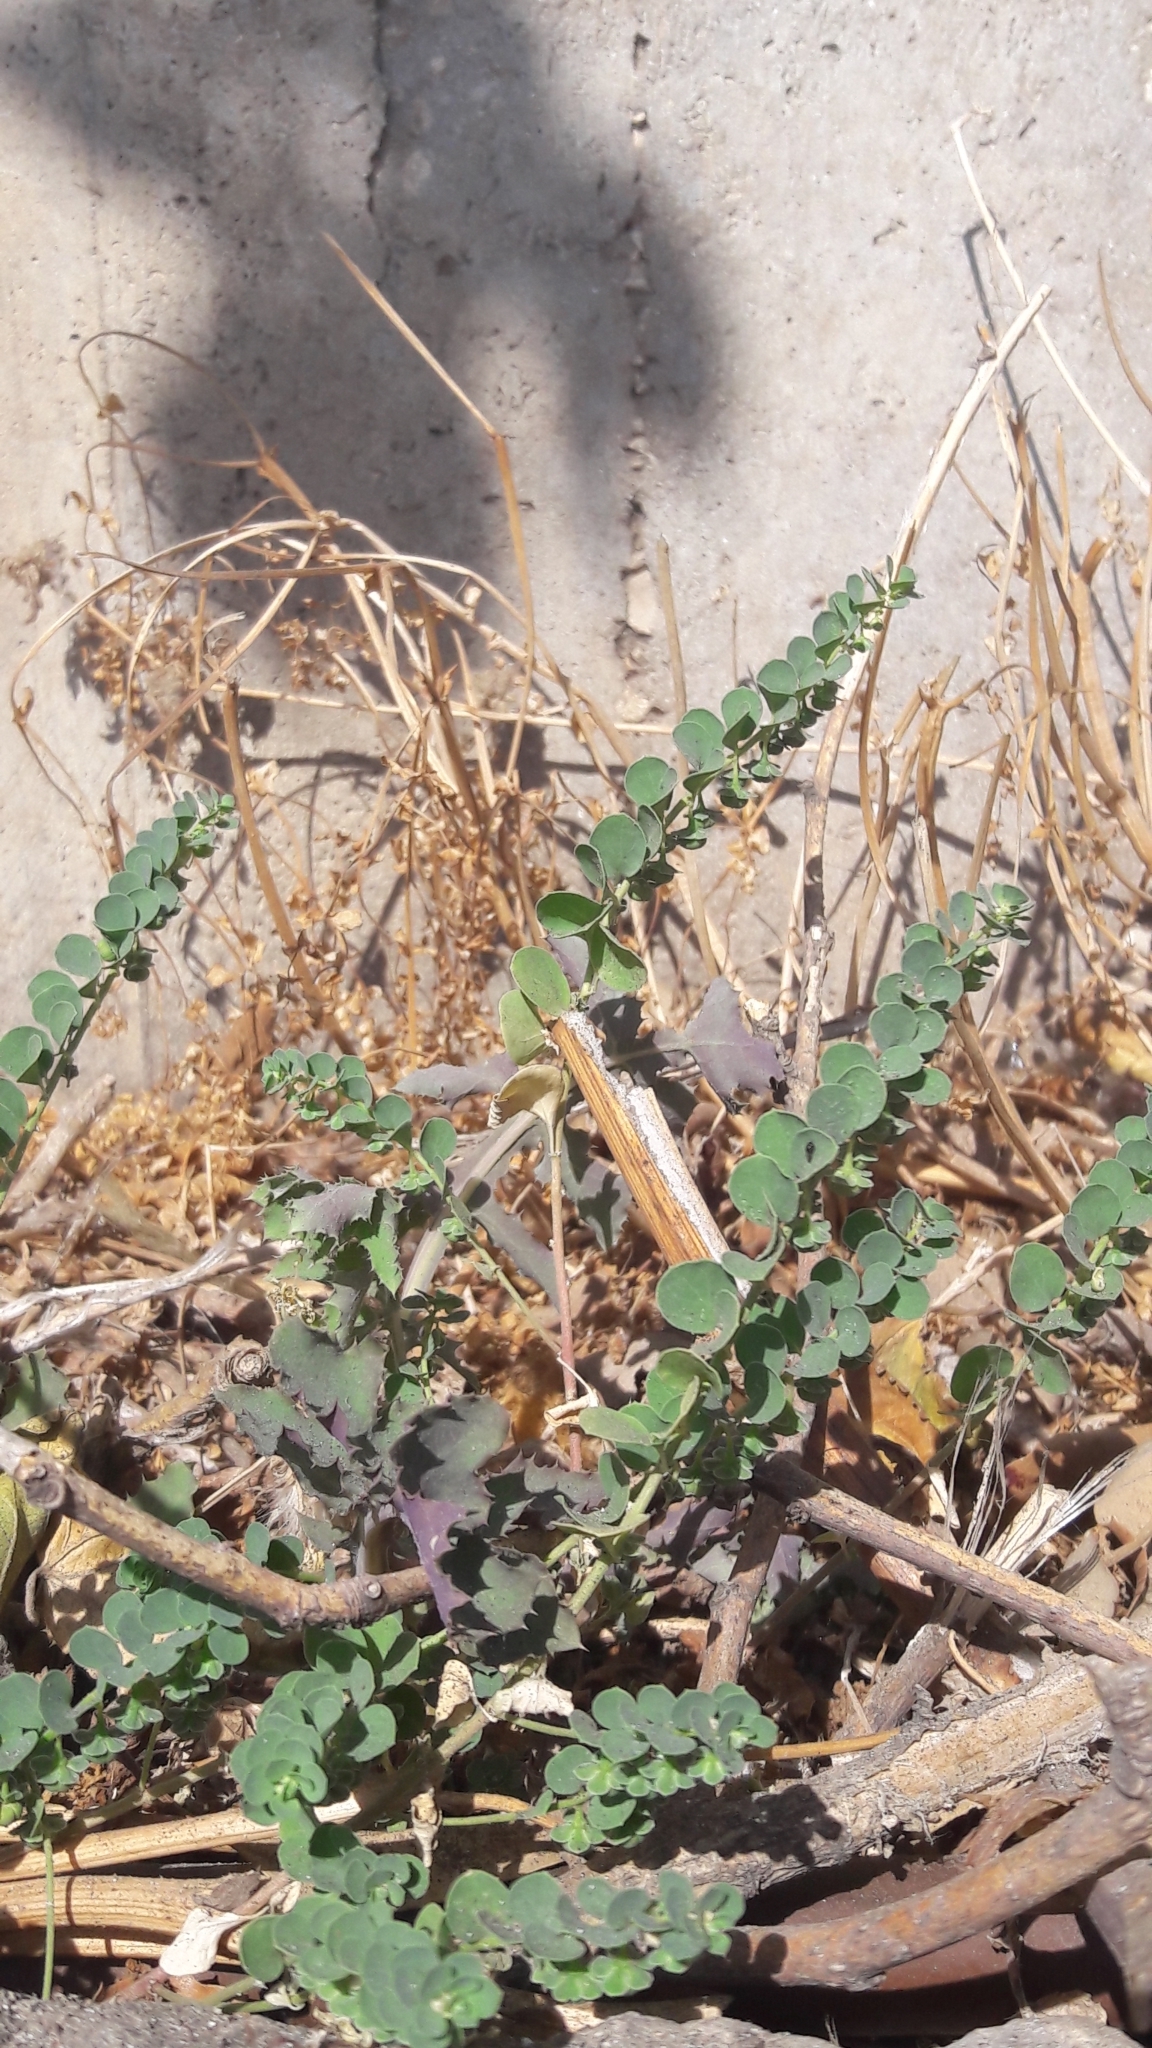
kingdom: Plantae
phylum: Tracheophyta
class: Magnoliopsida
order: Malpighiales
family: Phyllanthaceae
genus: Andrachne
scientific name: Andrachne telephioides
